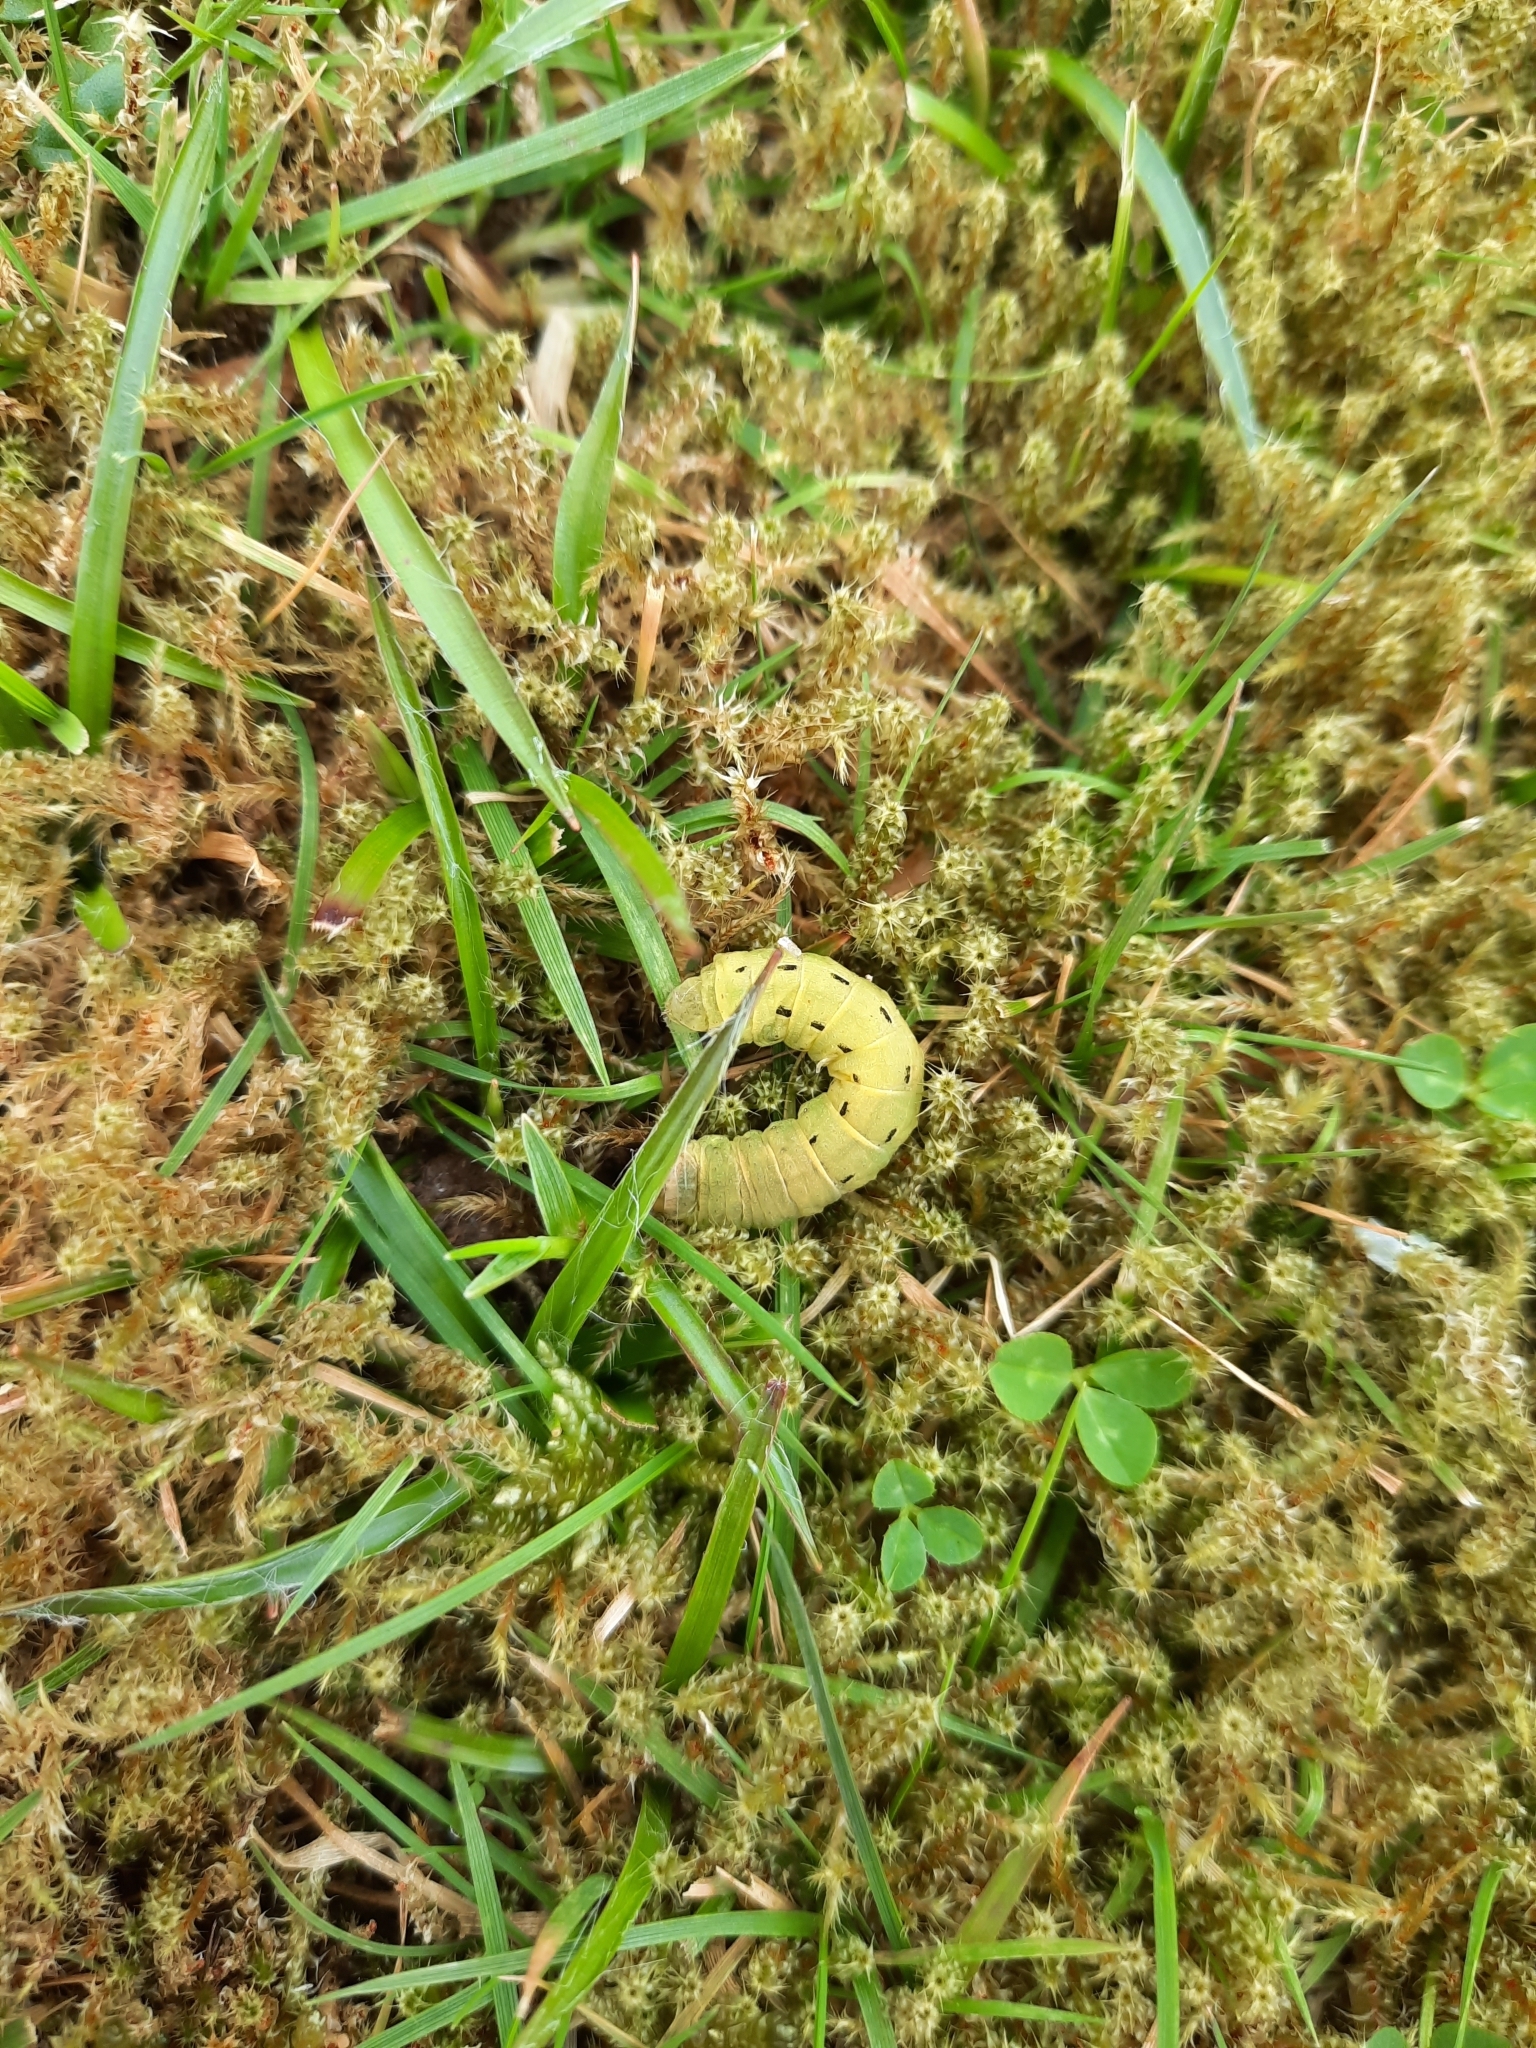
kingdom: Animalia
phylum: Arthropoda
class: Insecta
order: Lepidoptera
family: Noctuidae
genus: Noctua
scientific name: Noctua pronuba
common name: Large yellow underwing
